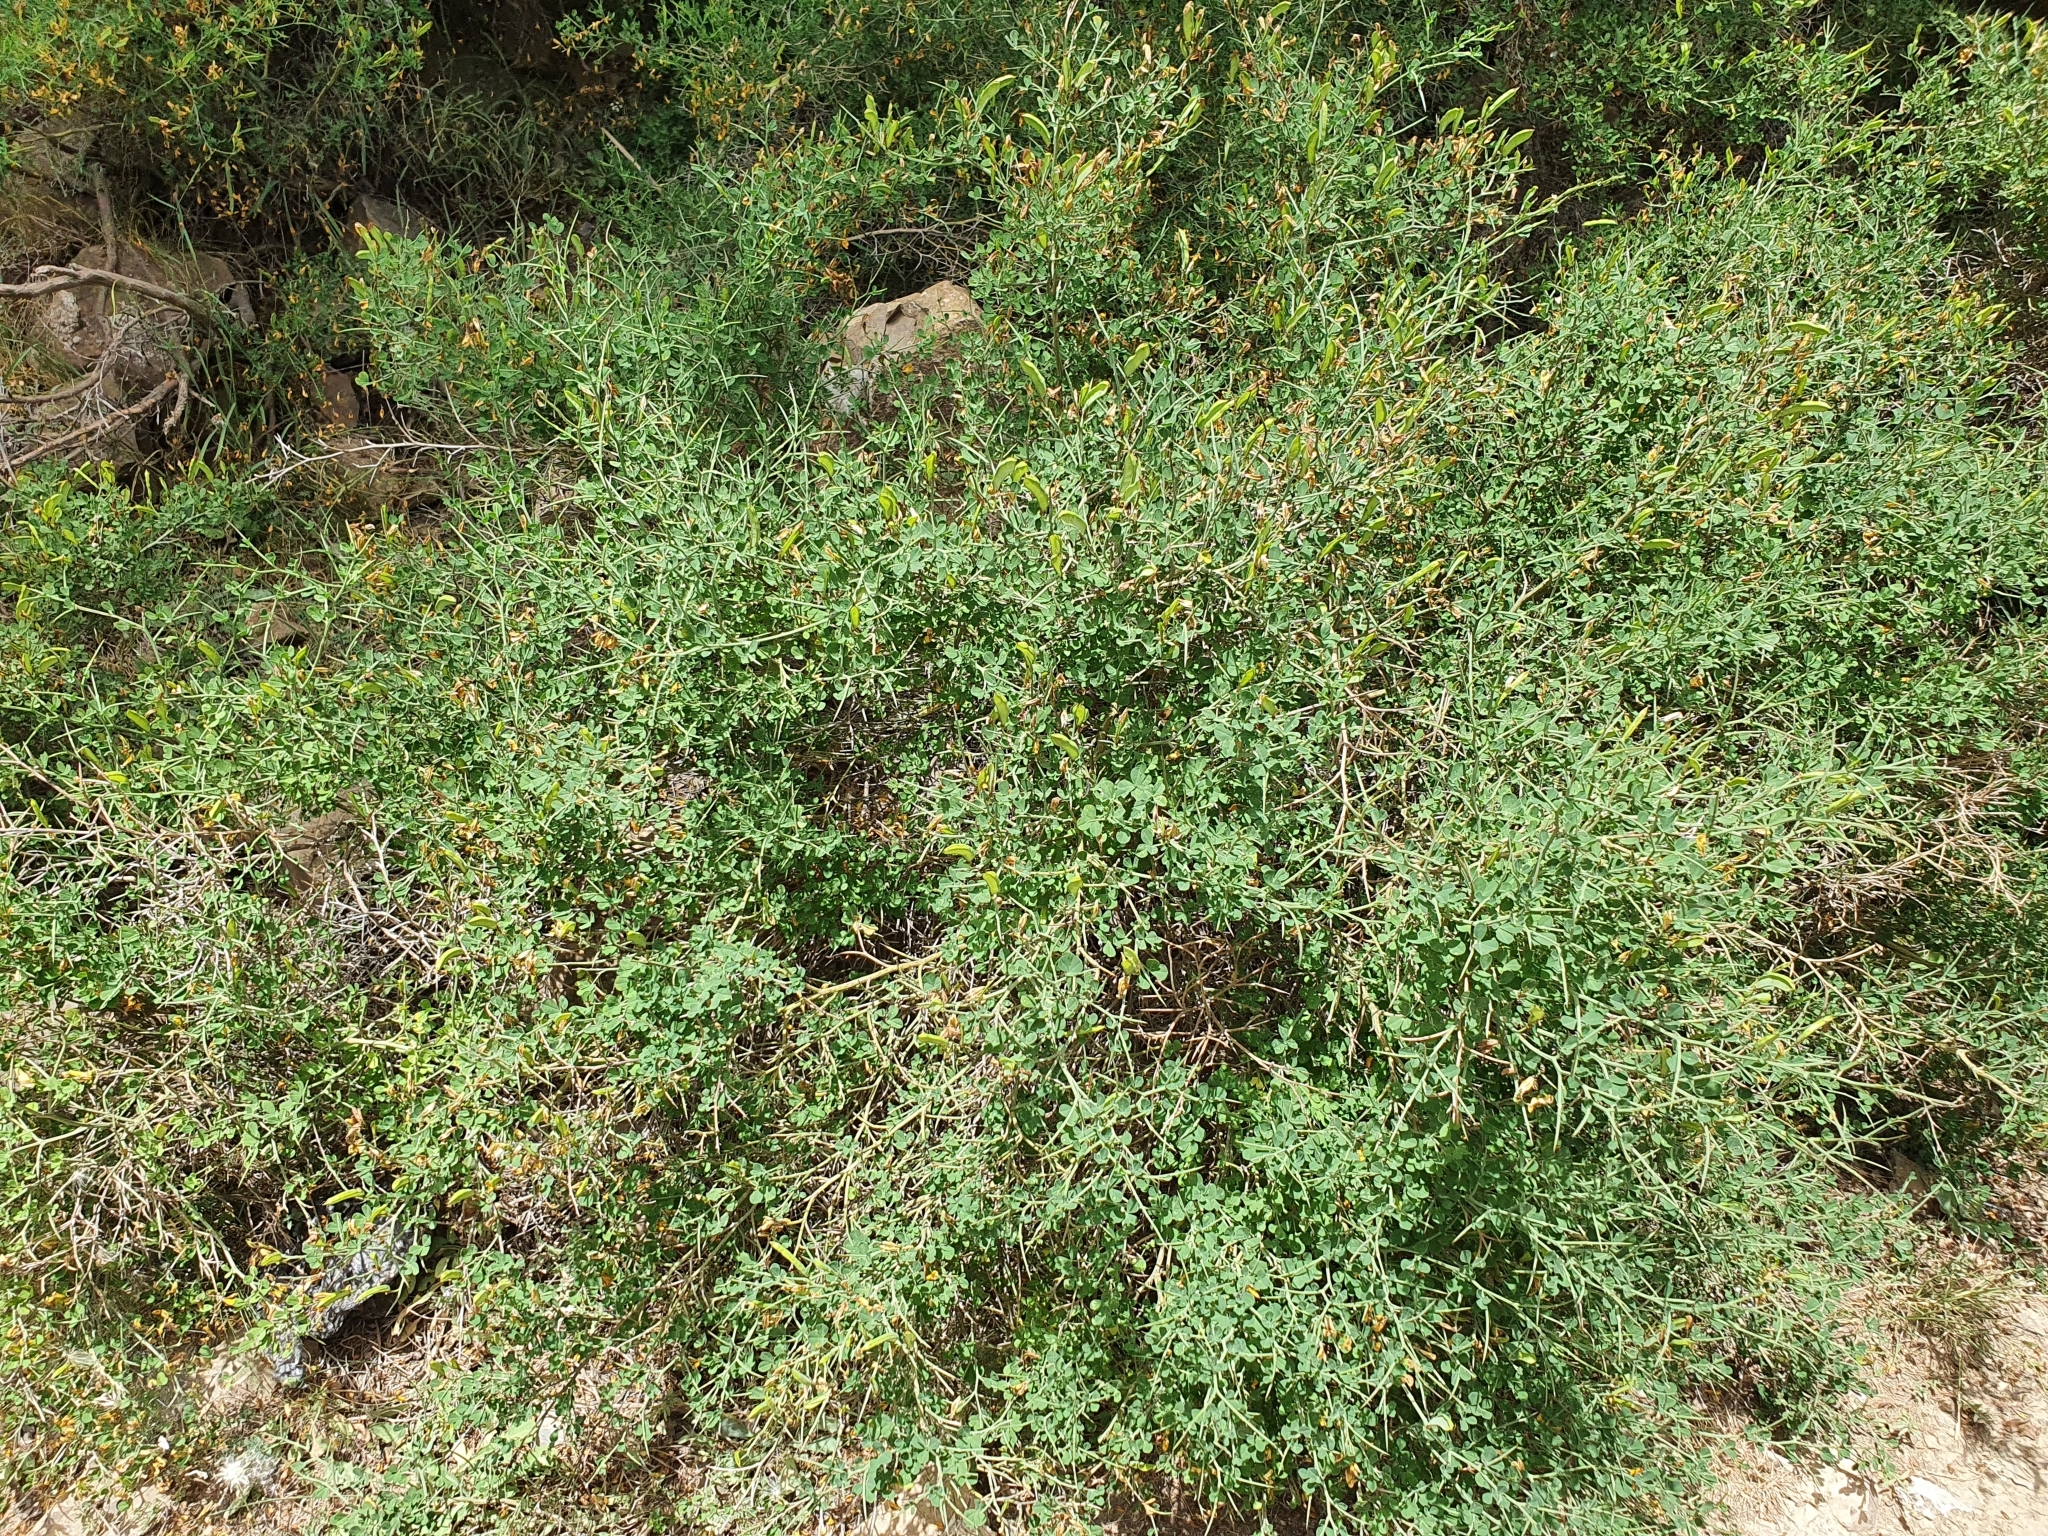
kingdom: Plantae
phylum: Tracheophyta
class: Magnoliopsida
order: Fabales
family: Fabaceae
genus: Calicotome
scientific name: Calicotome spinosa
